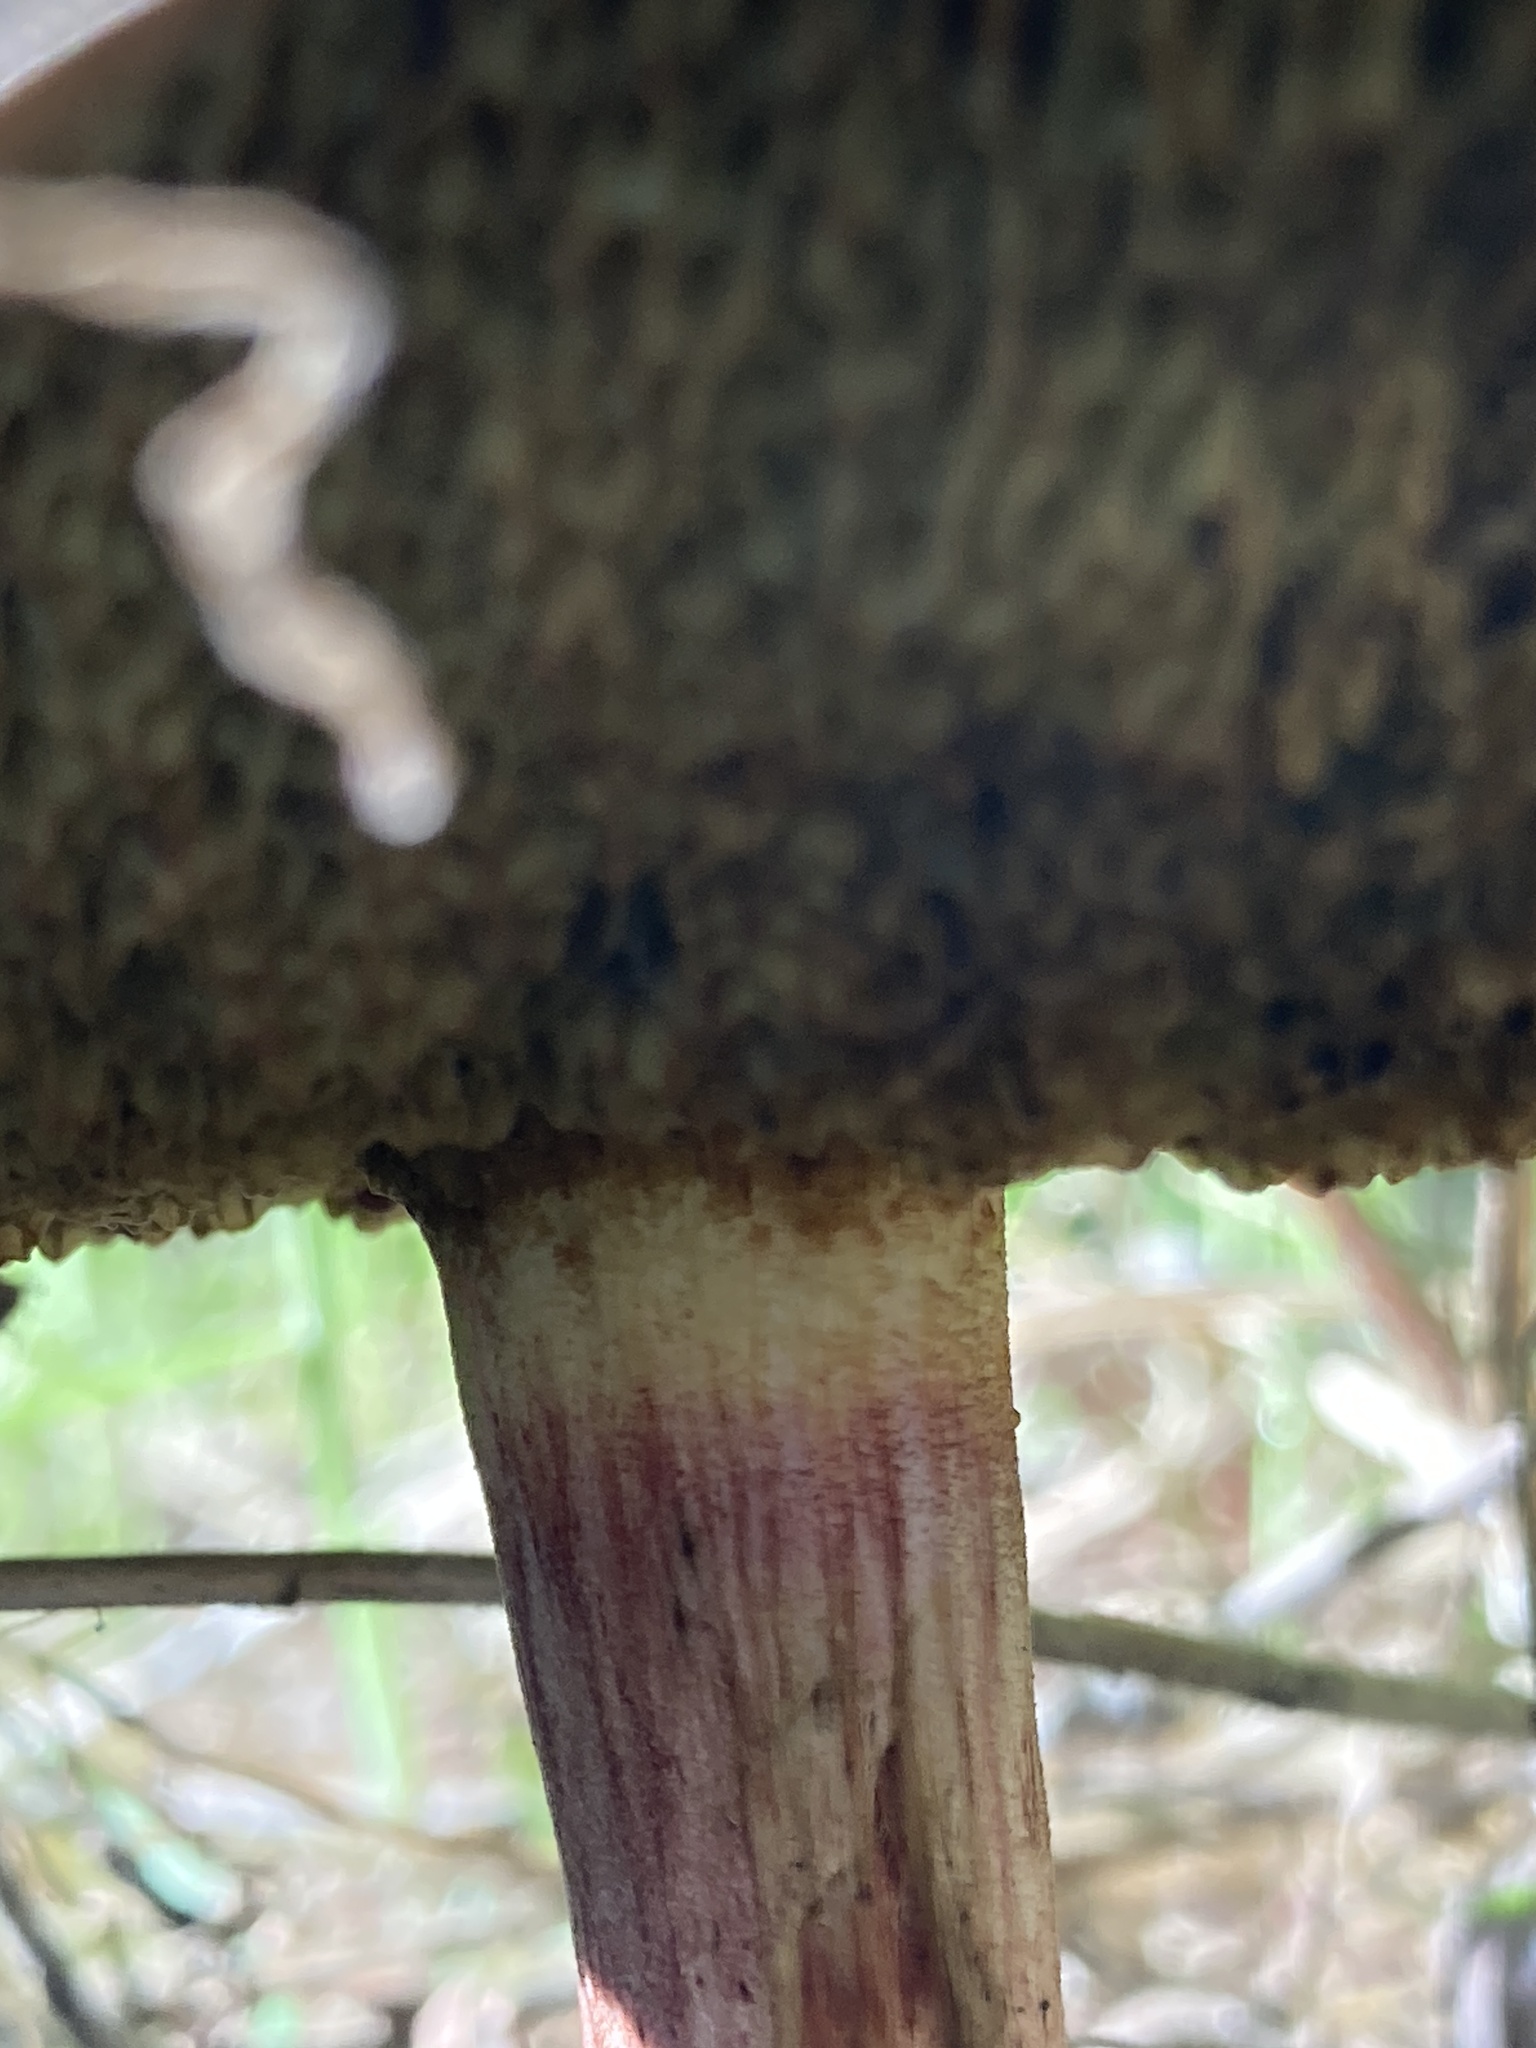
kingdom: Fungi
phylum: Basidiomycota
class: Agaricomycetes
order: Boletales
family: Boletaceae
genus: Xerocomellus
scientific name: Xerocomellus chrysenteron
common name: Red-cracking bolete
